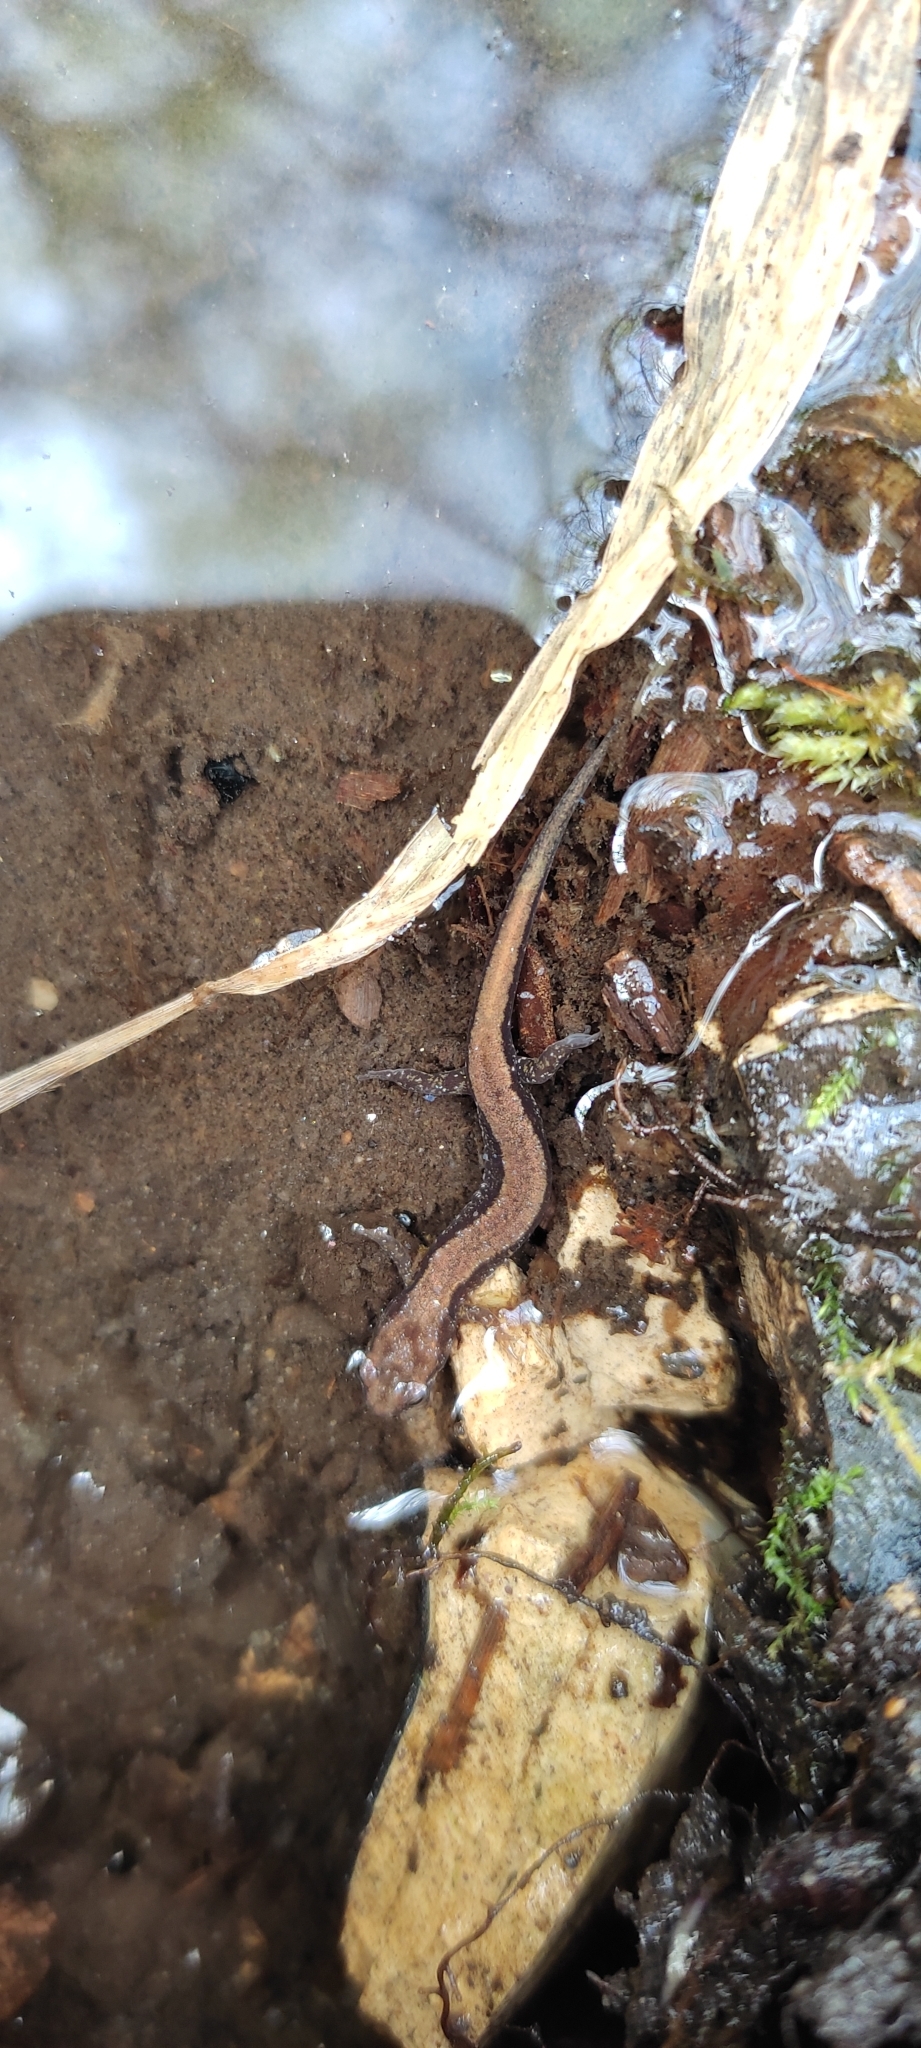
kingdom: Animalia
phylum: Chordata
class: Amphibia
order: Caudata
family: Plethodontidae
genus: Desmognathus
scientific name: Desmognathus ochrophaeus
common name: Allegheny mountain dusky salamander
